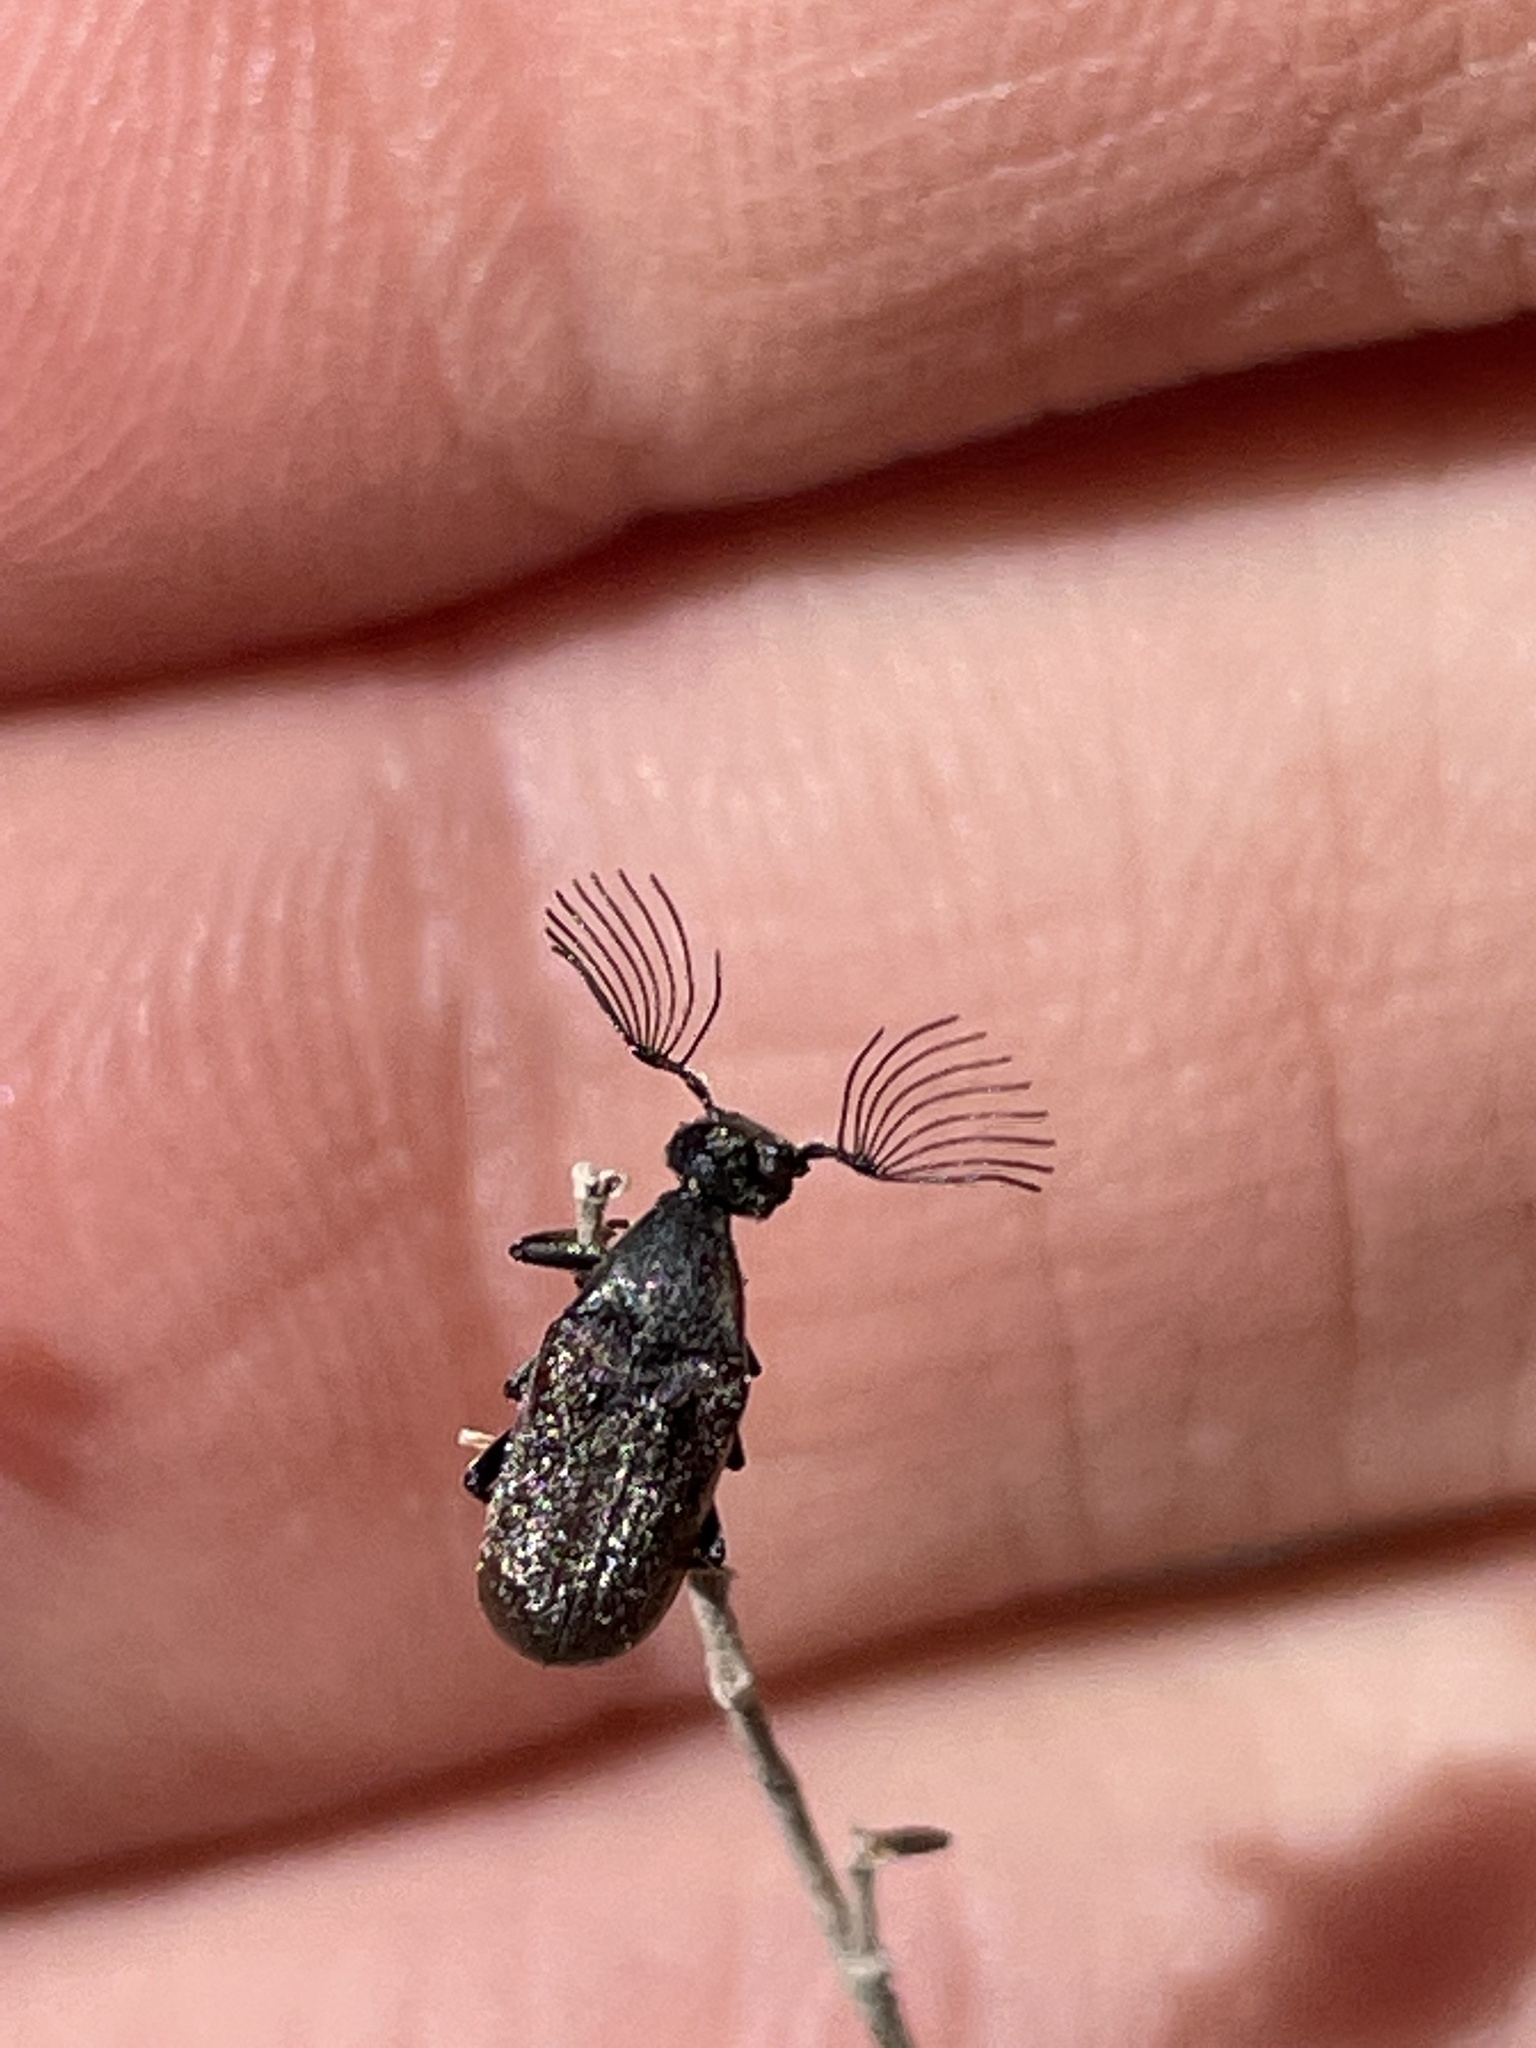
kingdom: Animalia
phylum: Arthropoda
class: Insecta
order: Coleoptera
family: Ripiphoridae
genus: Ptilophorus
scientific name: Ptilophorus wrightii
